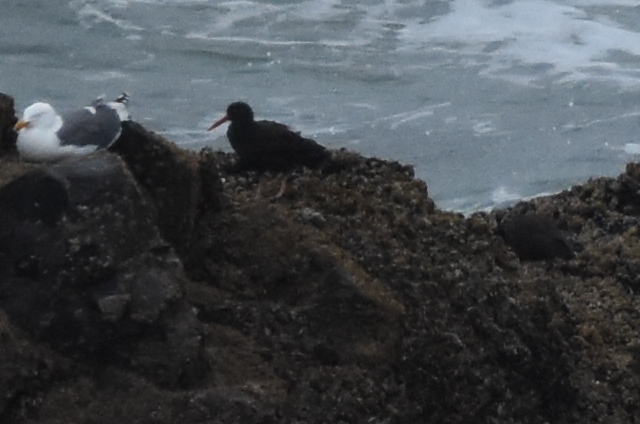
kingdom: Animalia
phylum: Chordata
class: Aves
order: Charadriiformes
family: Haematopodidae
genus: Haematopus
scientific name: Haematopus bachmani
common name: Black oystercatcher
